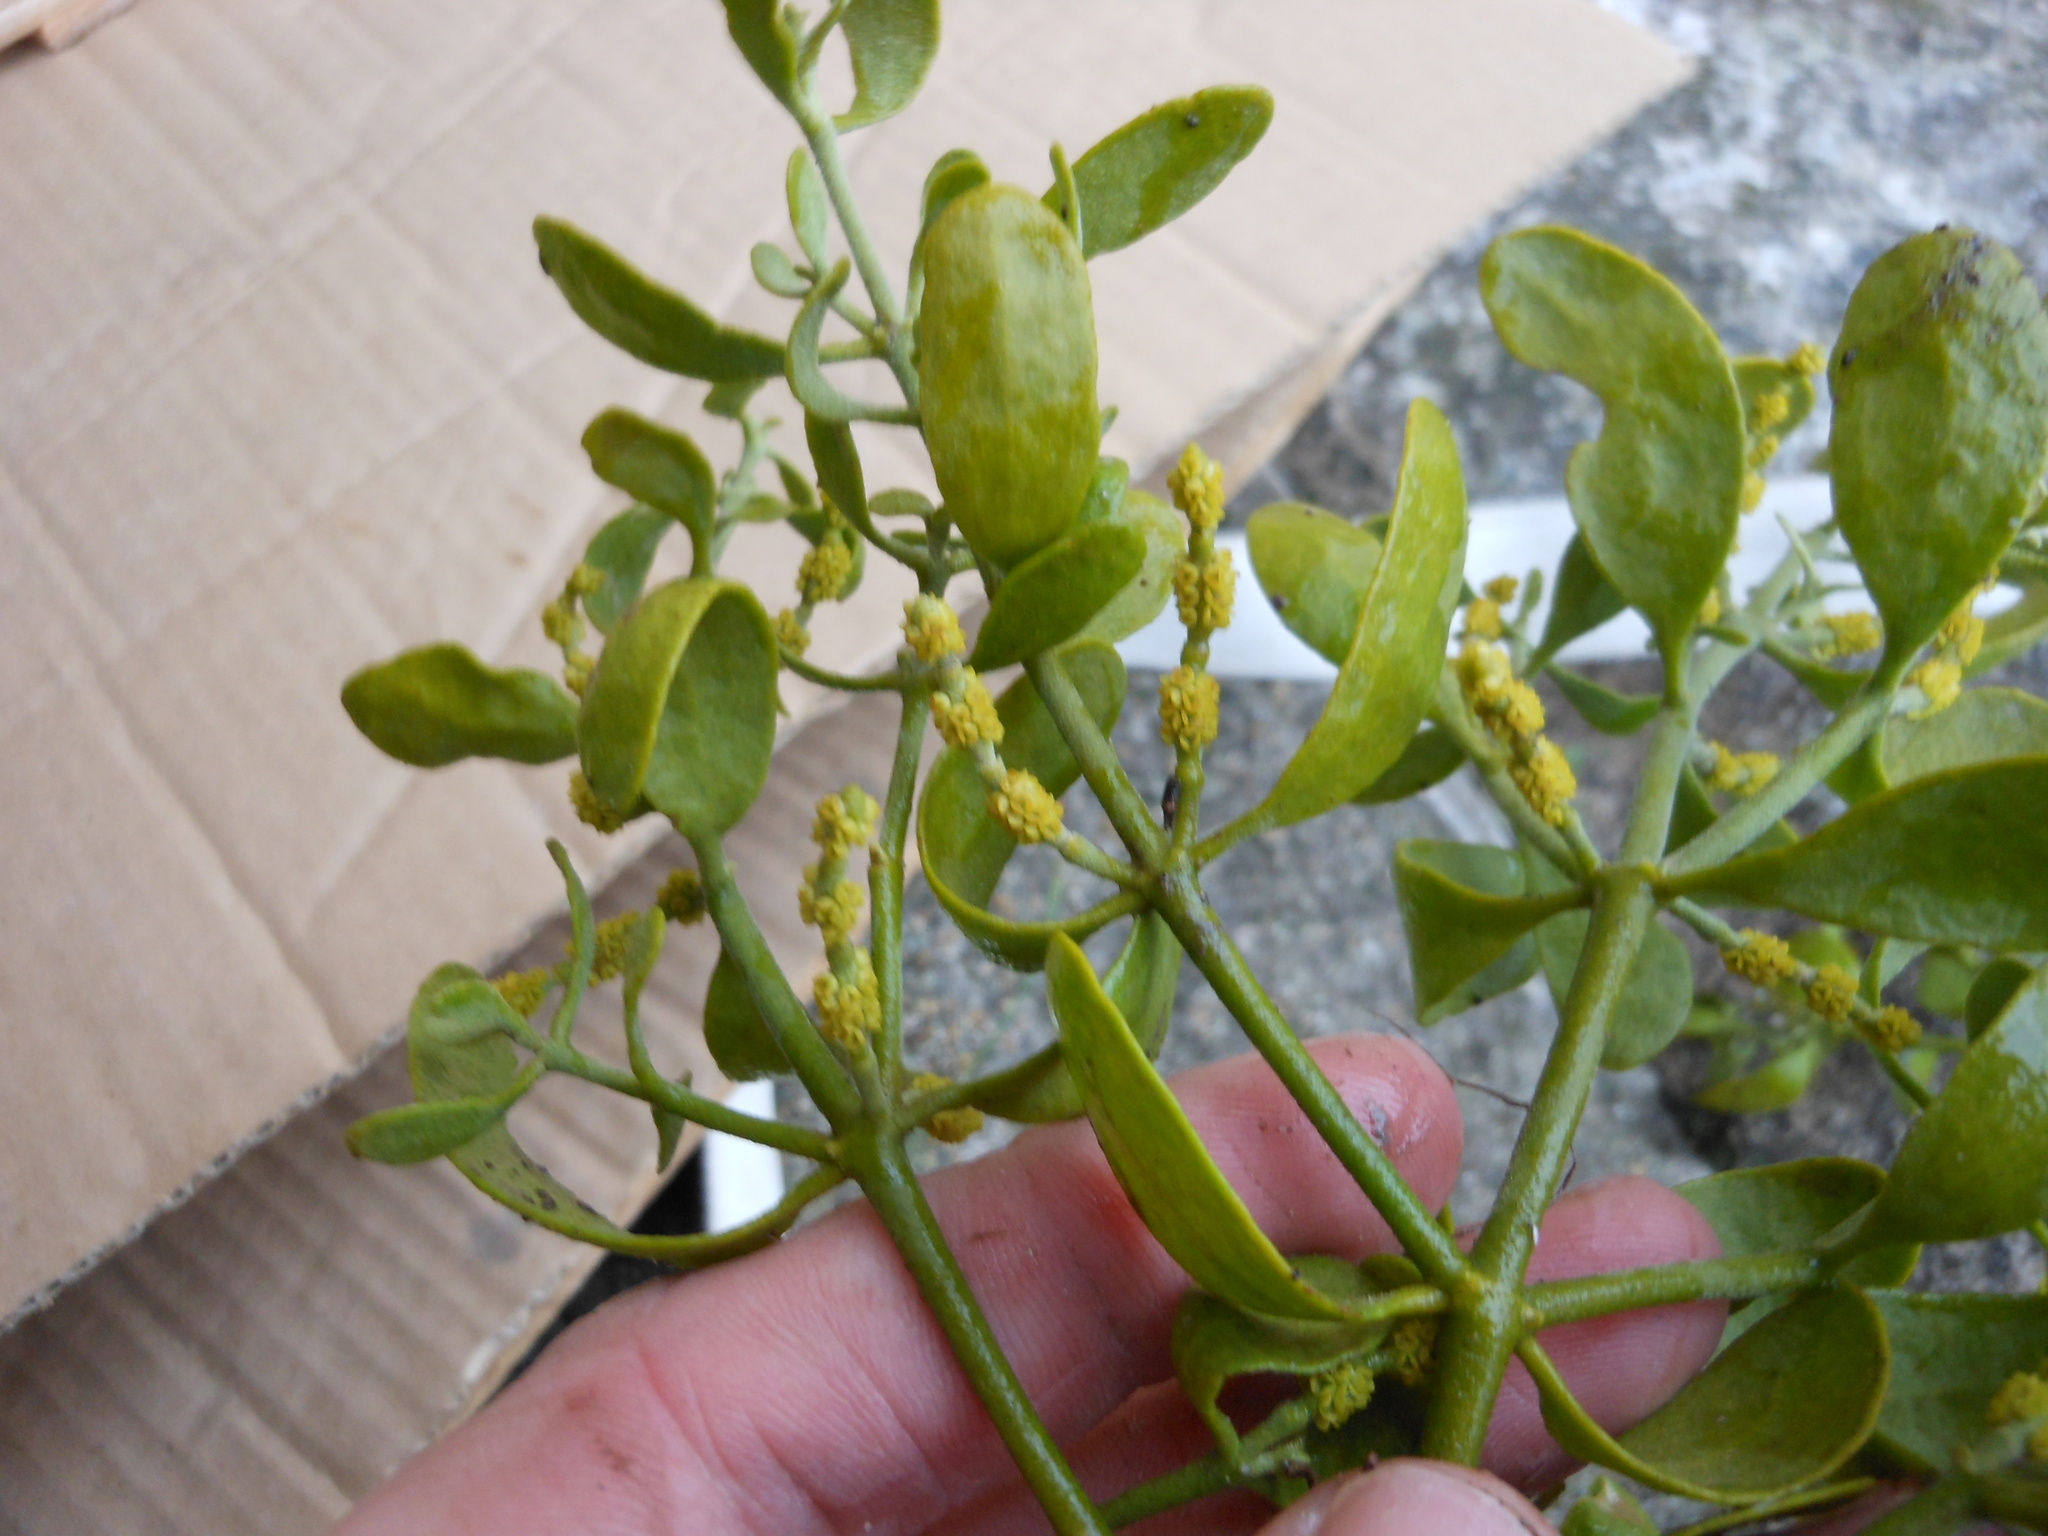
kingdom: Plantae
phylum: Tracheophyta
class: Magnoliopsida
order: Santalales
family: Viscaceae
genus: Phoradendron
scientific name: Phoradendron leucarpum
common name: Pacific mistletoe
